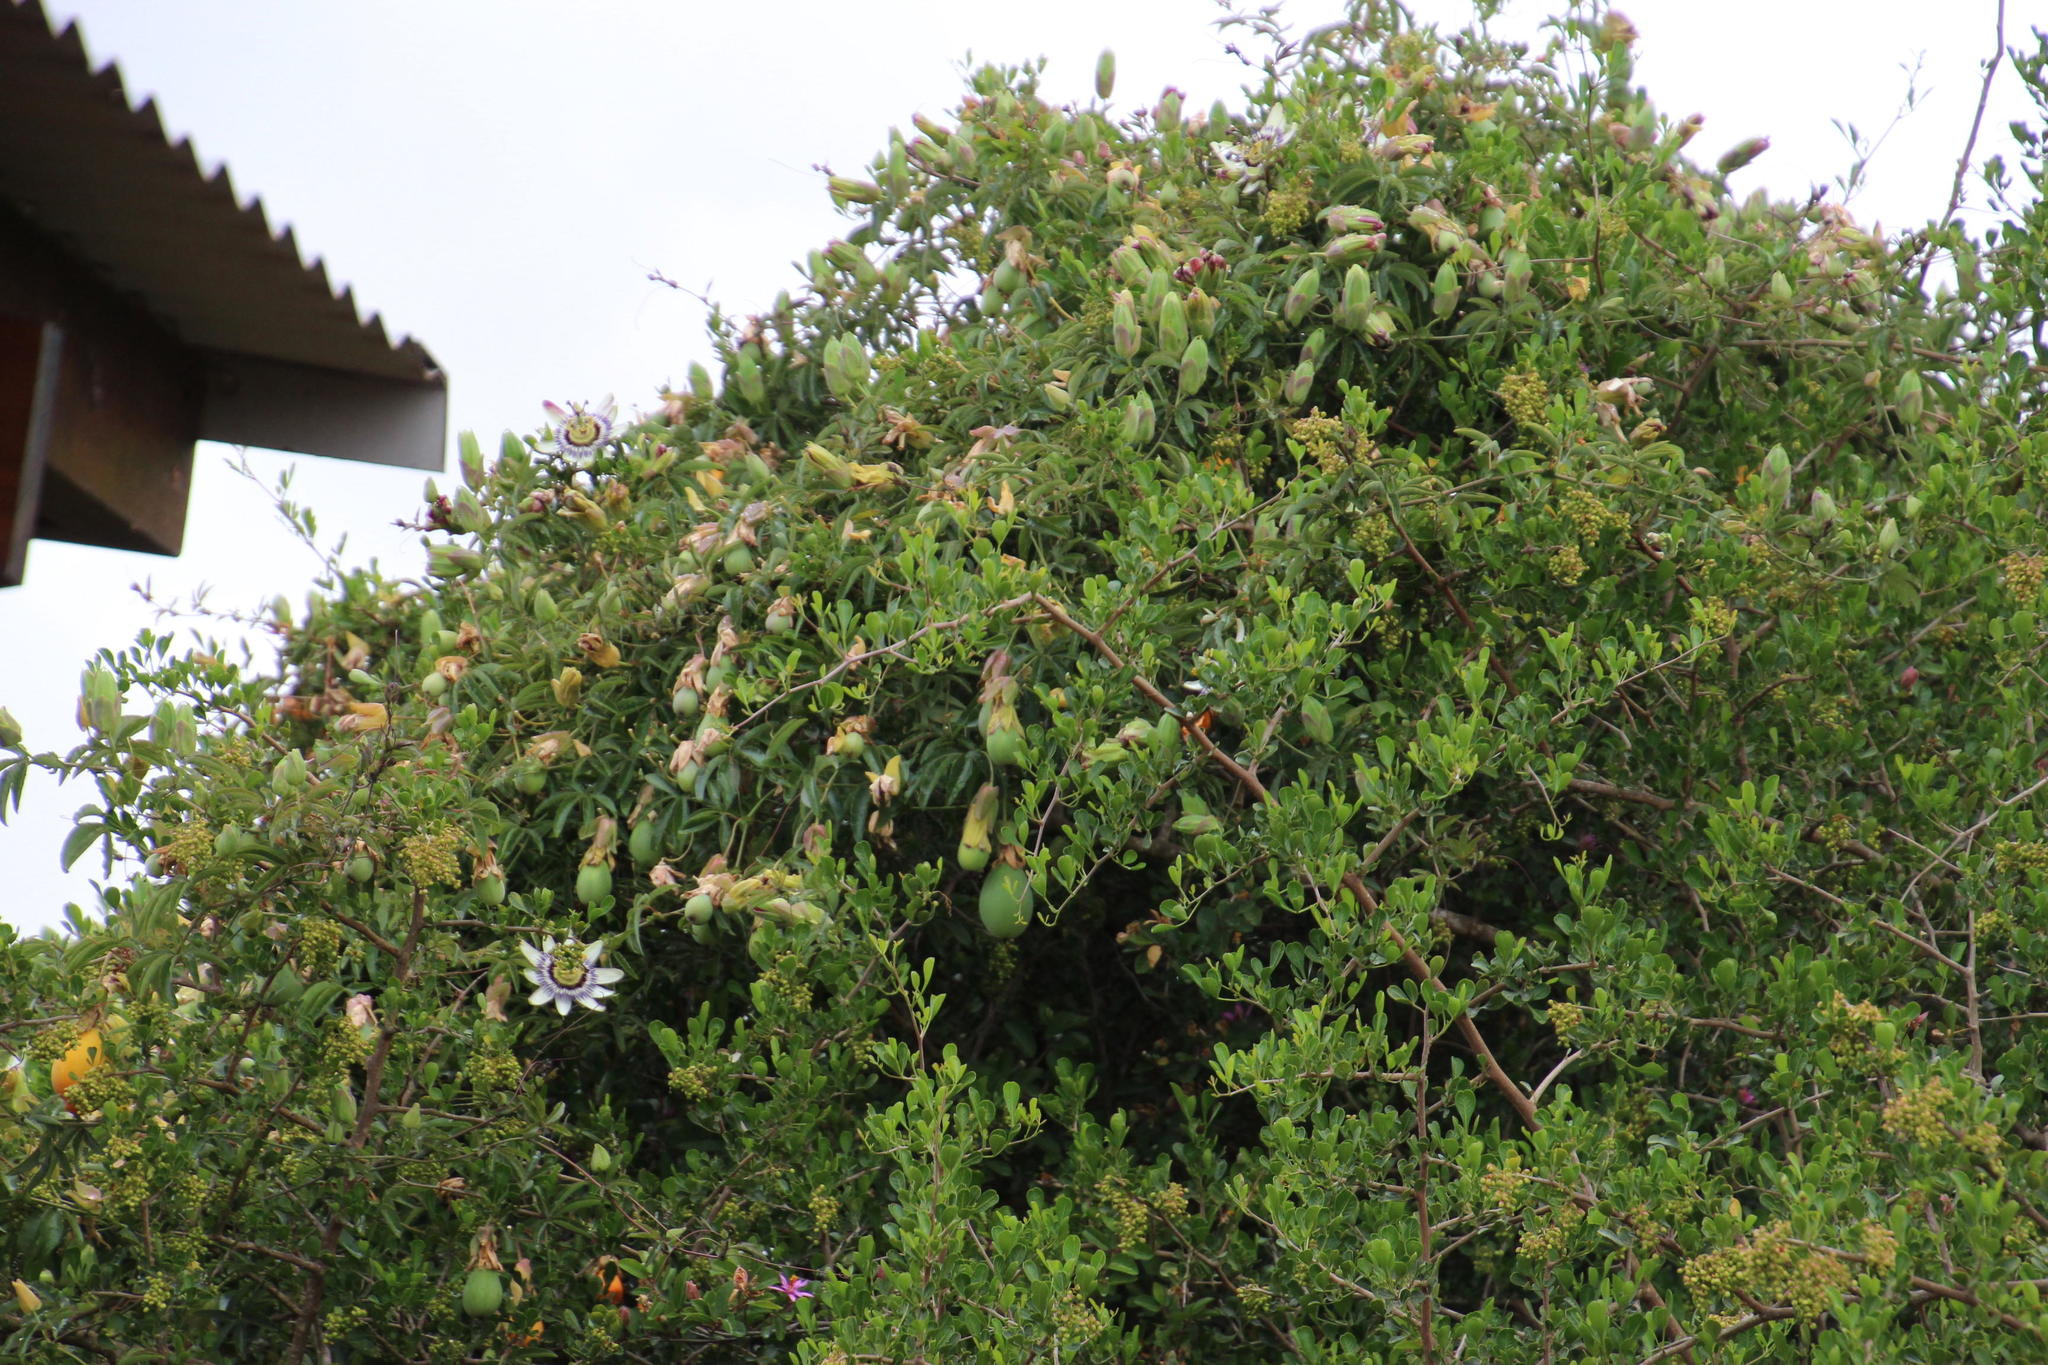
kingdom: Plantae
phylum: Tracheophyta
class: Magnoliopsida
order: Malpighiales
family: Passifloraceae
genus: Passiflora
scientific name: Passiflora caerulea
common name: Blue passionflower
